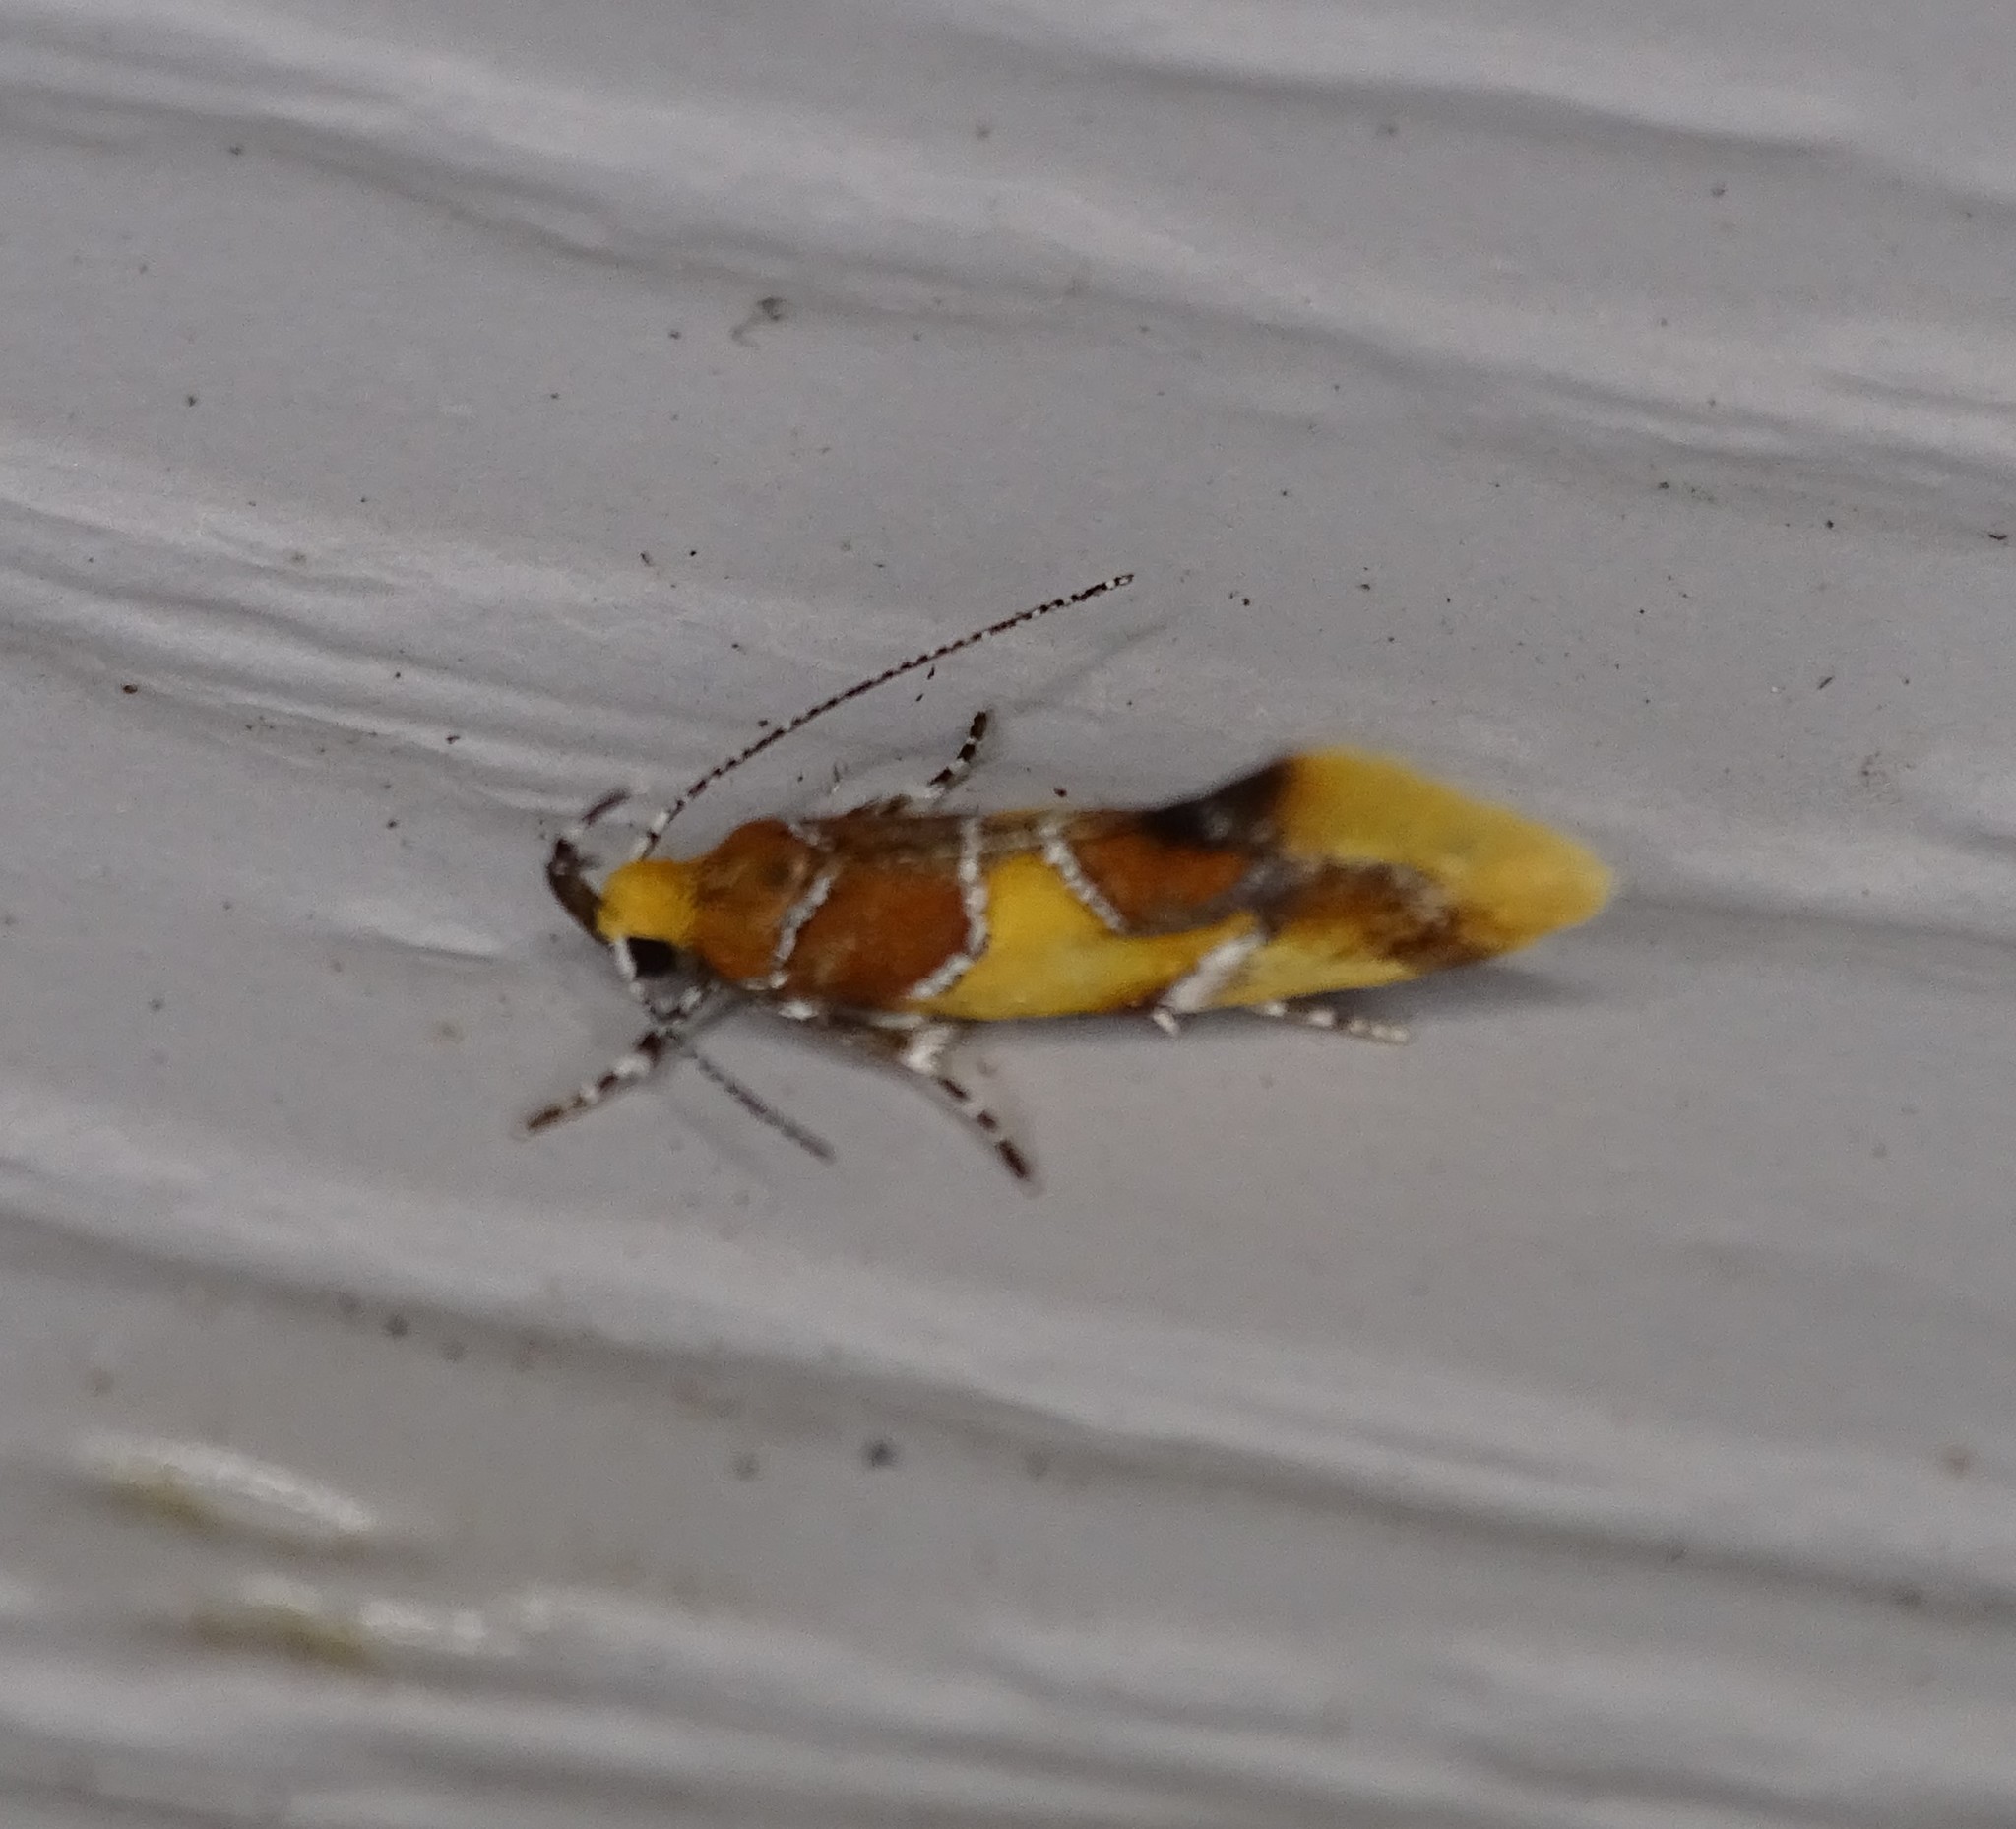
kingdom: Animalia
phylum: Arthropoda
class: Insecta
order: Lepidoptera
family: Oecophoridae
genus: Callima
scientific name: Callima argenticinctella
